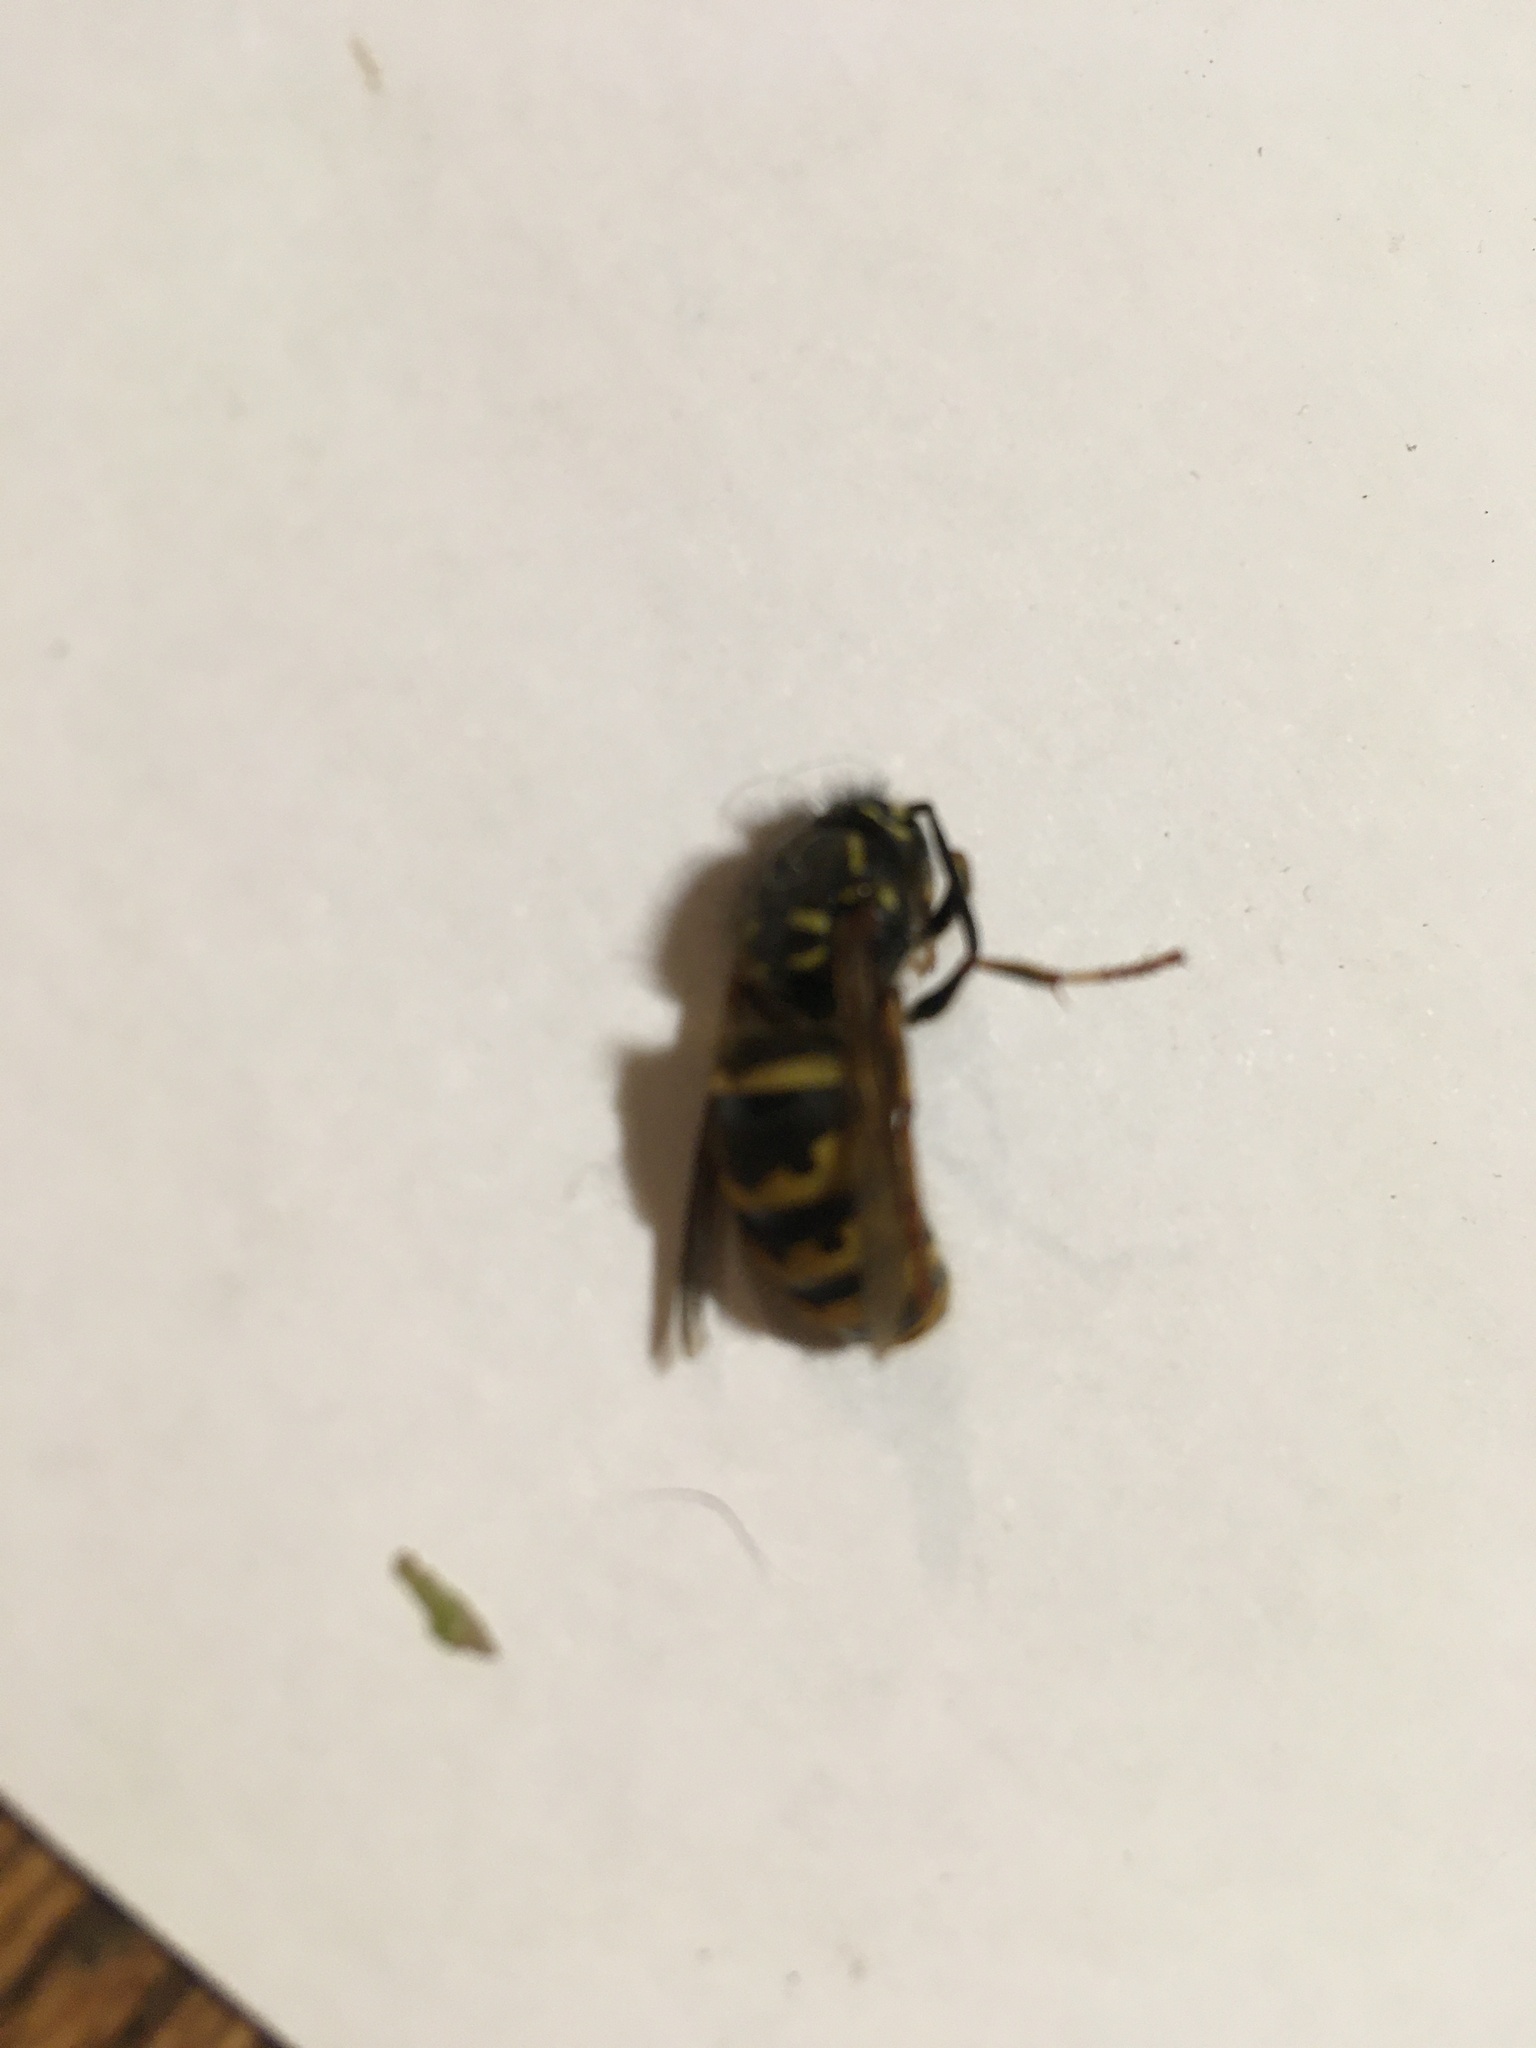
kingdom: Animalia
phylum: Arthropoda
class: Insecta
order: Hymenoptera
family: Vespidae
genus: Vespula
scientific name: Vespula vulgaris
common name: Common wasp
